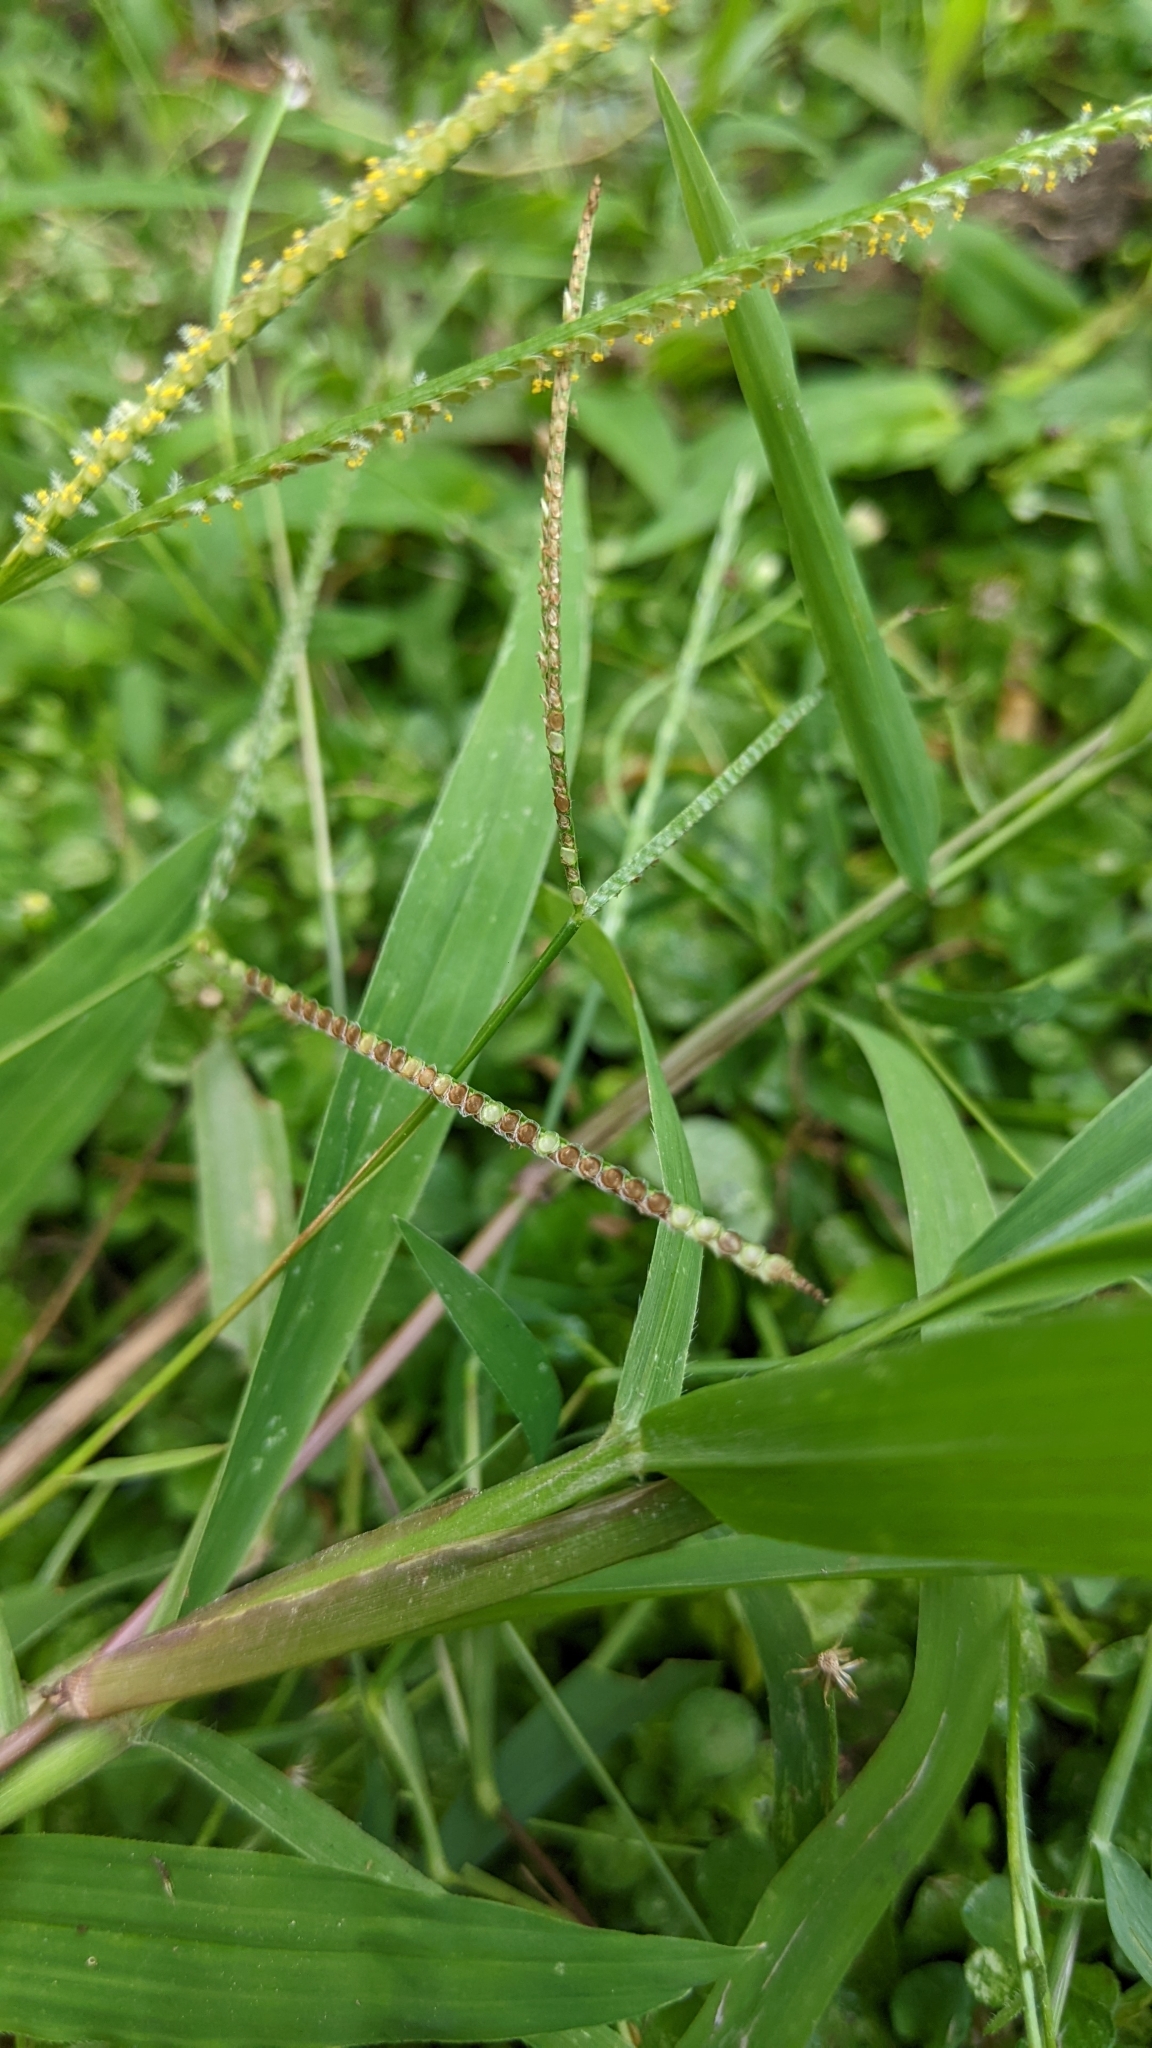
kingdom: Plantae
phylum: Tracheophyta
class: Liliopsida
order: Poales
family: Poaceae
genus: Paspalum
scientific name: Paspalum conjugatum
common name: Hilograss
